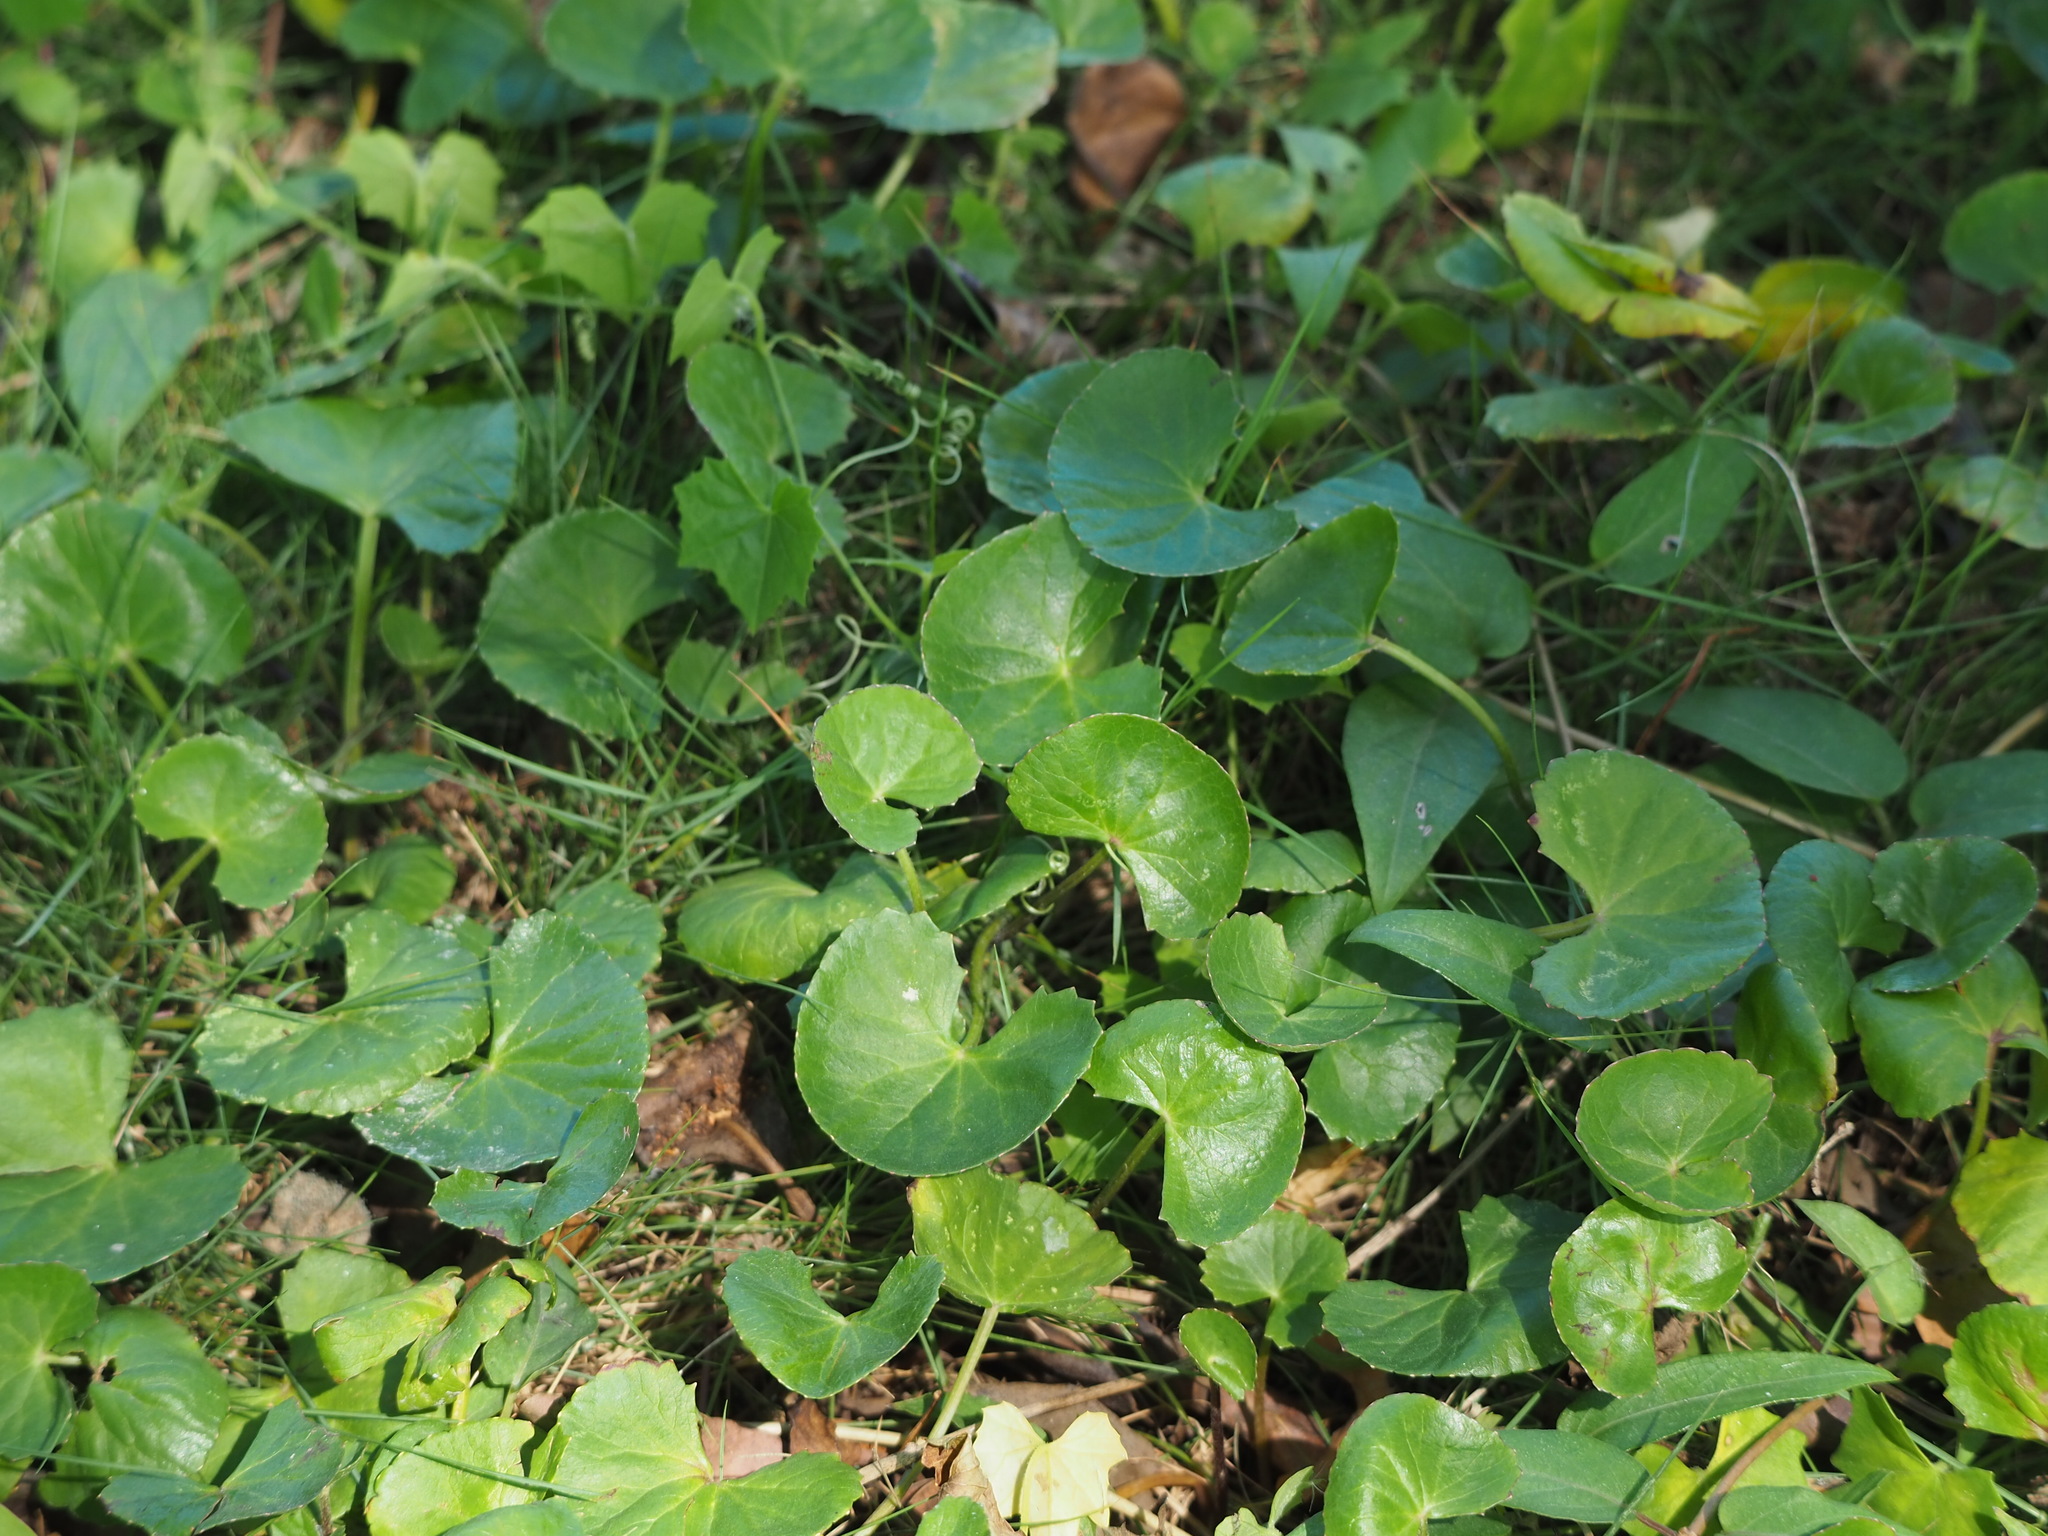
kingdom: Plantae
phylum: Tracheophyta
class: Magnoliopsida
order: Apiales
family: Apiaceae
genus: Centella
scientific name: Centella asiatica
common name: Spadeleaf
